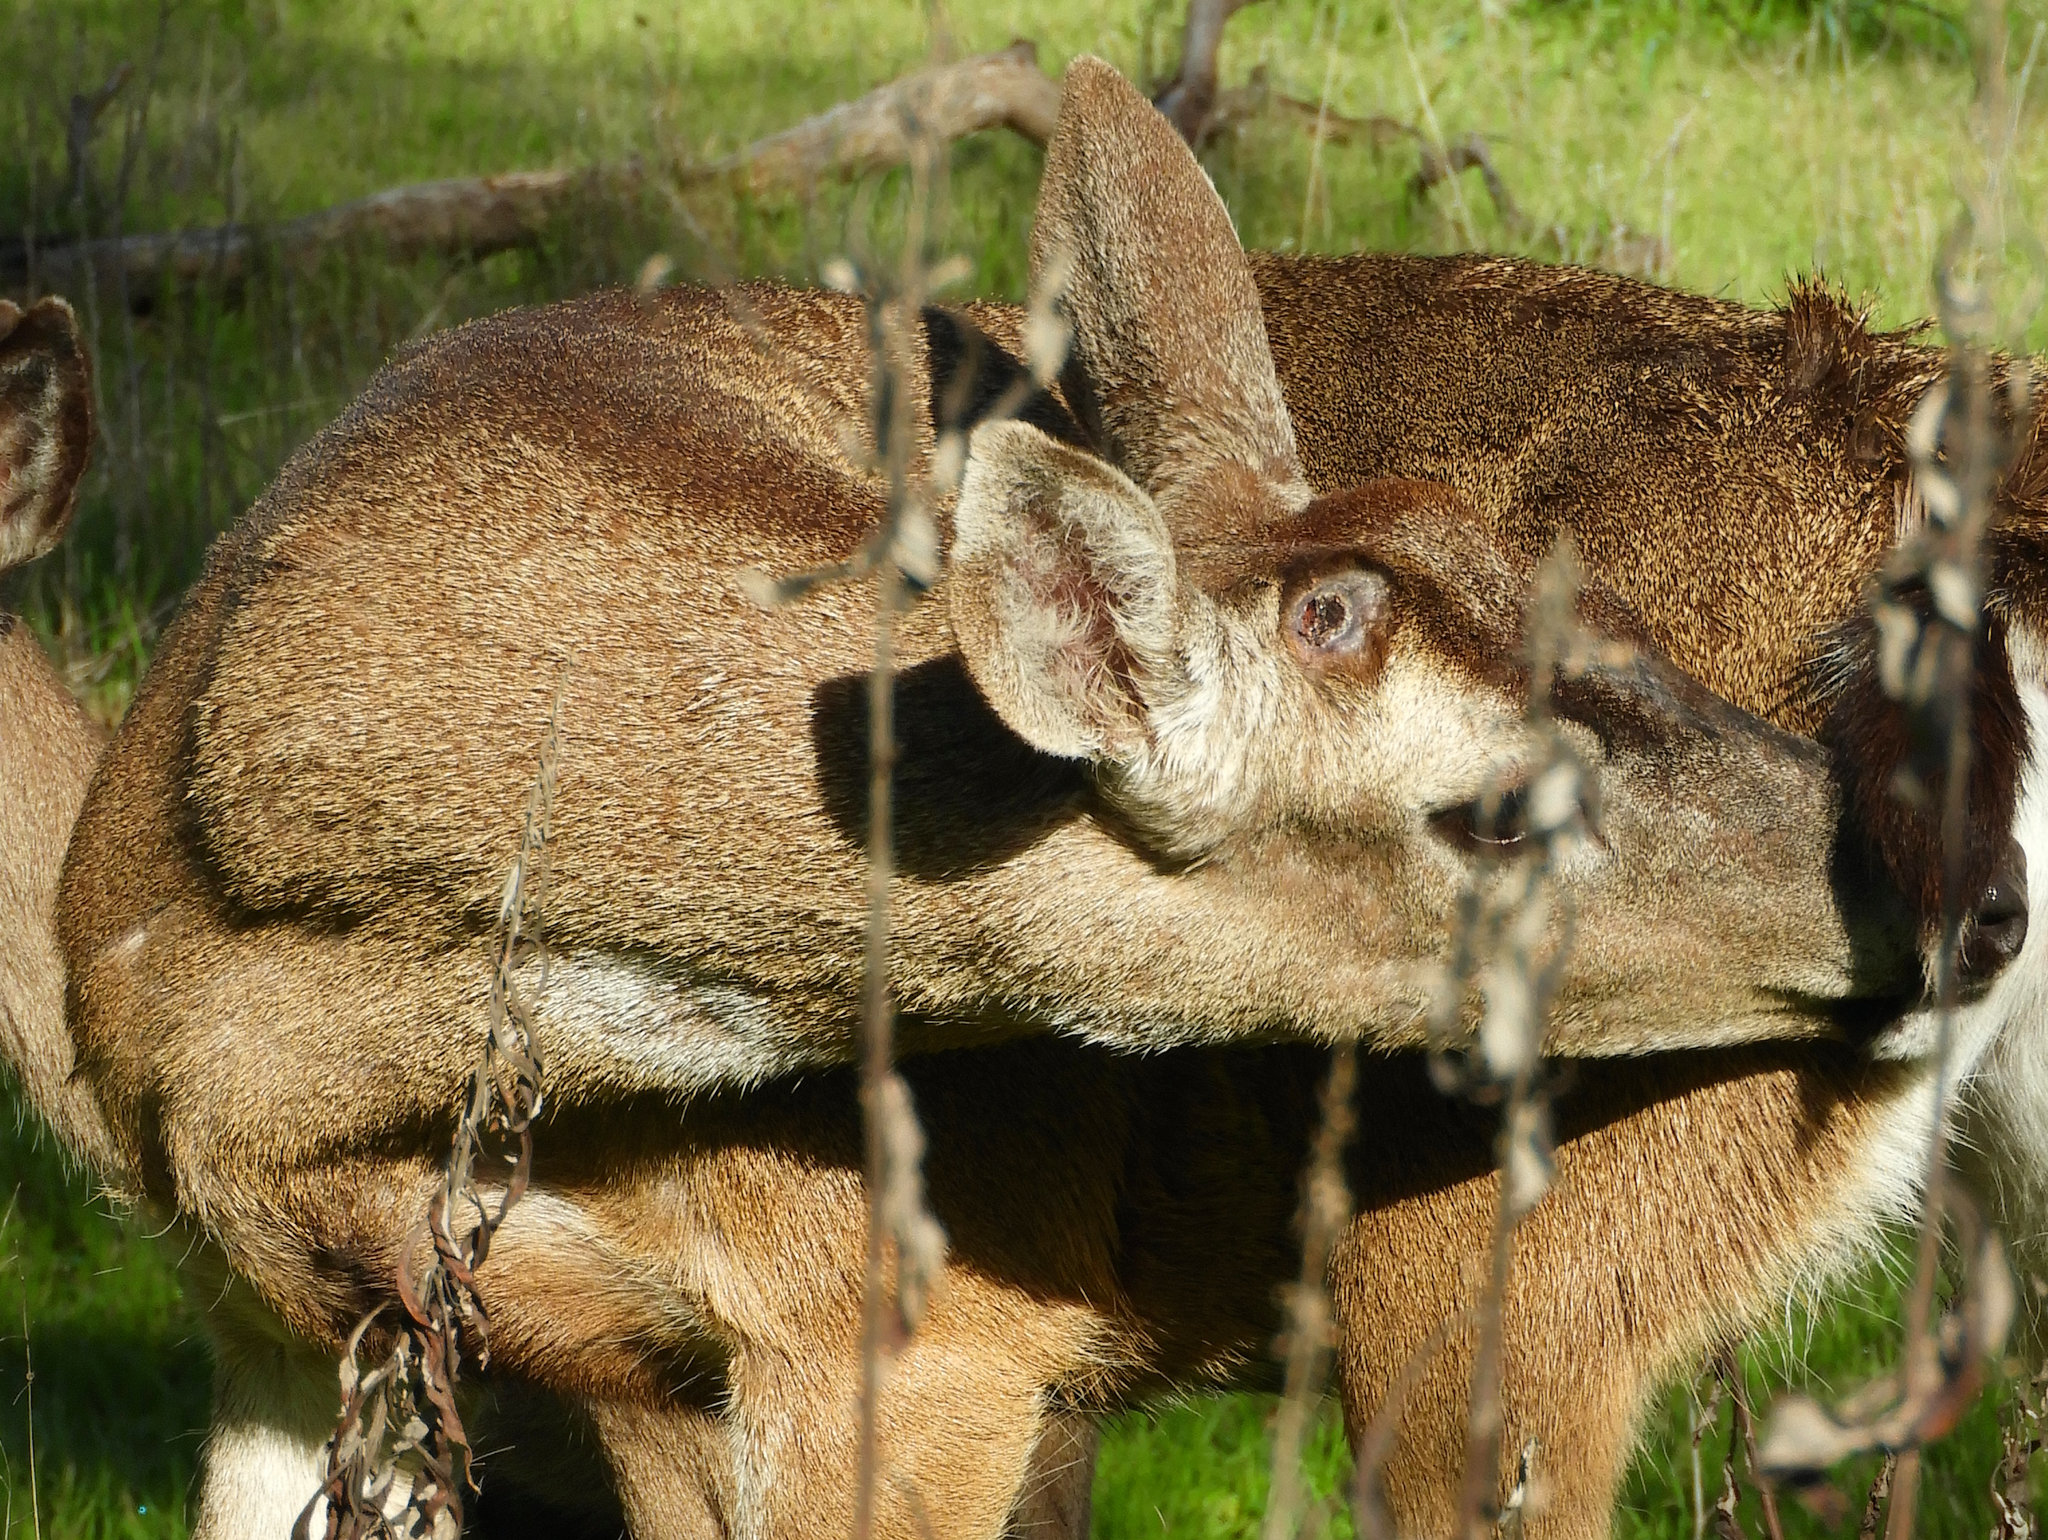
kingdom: Animalia
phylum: Chordata
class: Mammalia
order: Artiodactyla
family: Cervidae
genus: Odocoileus
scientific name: Odocoileus hemionus
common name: Mule deer
